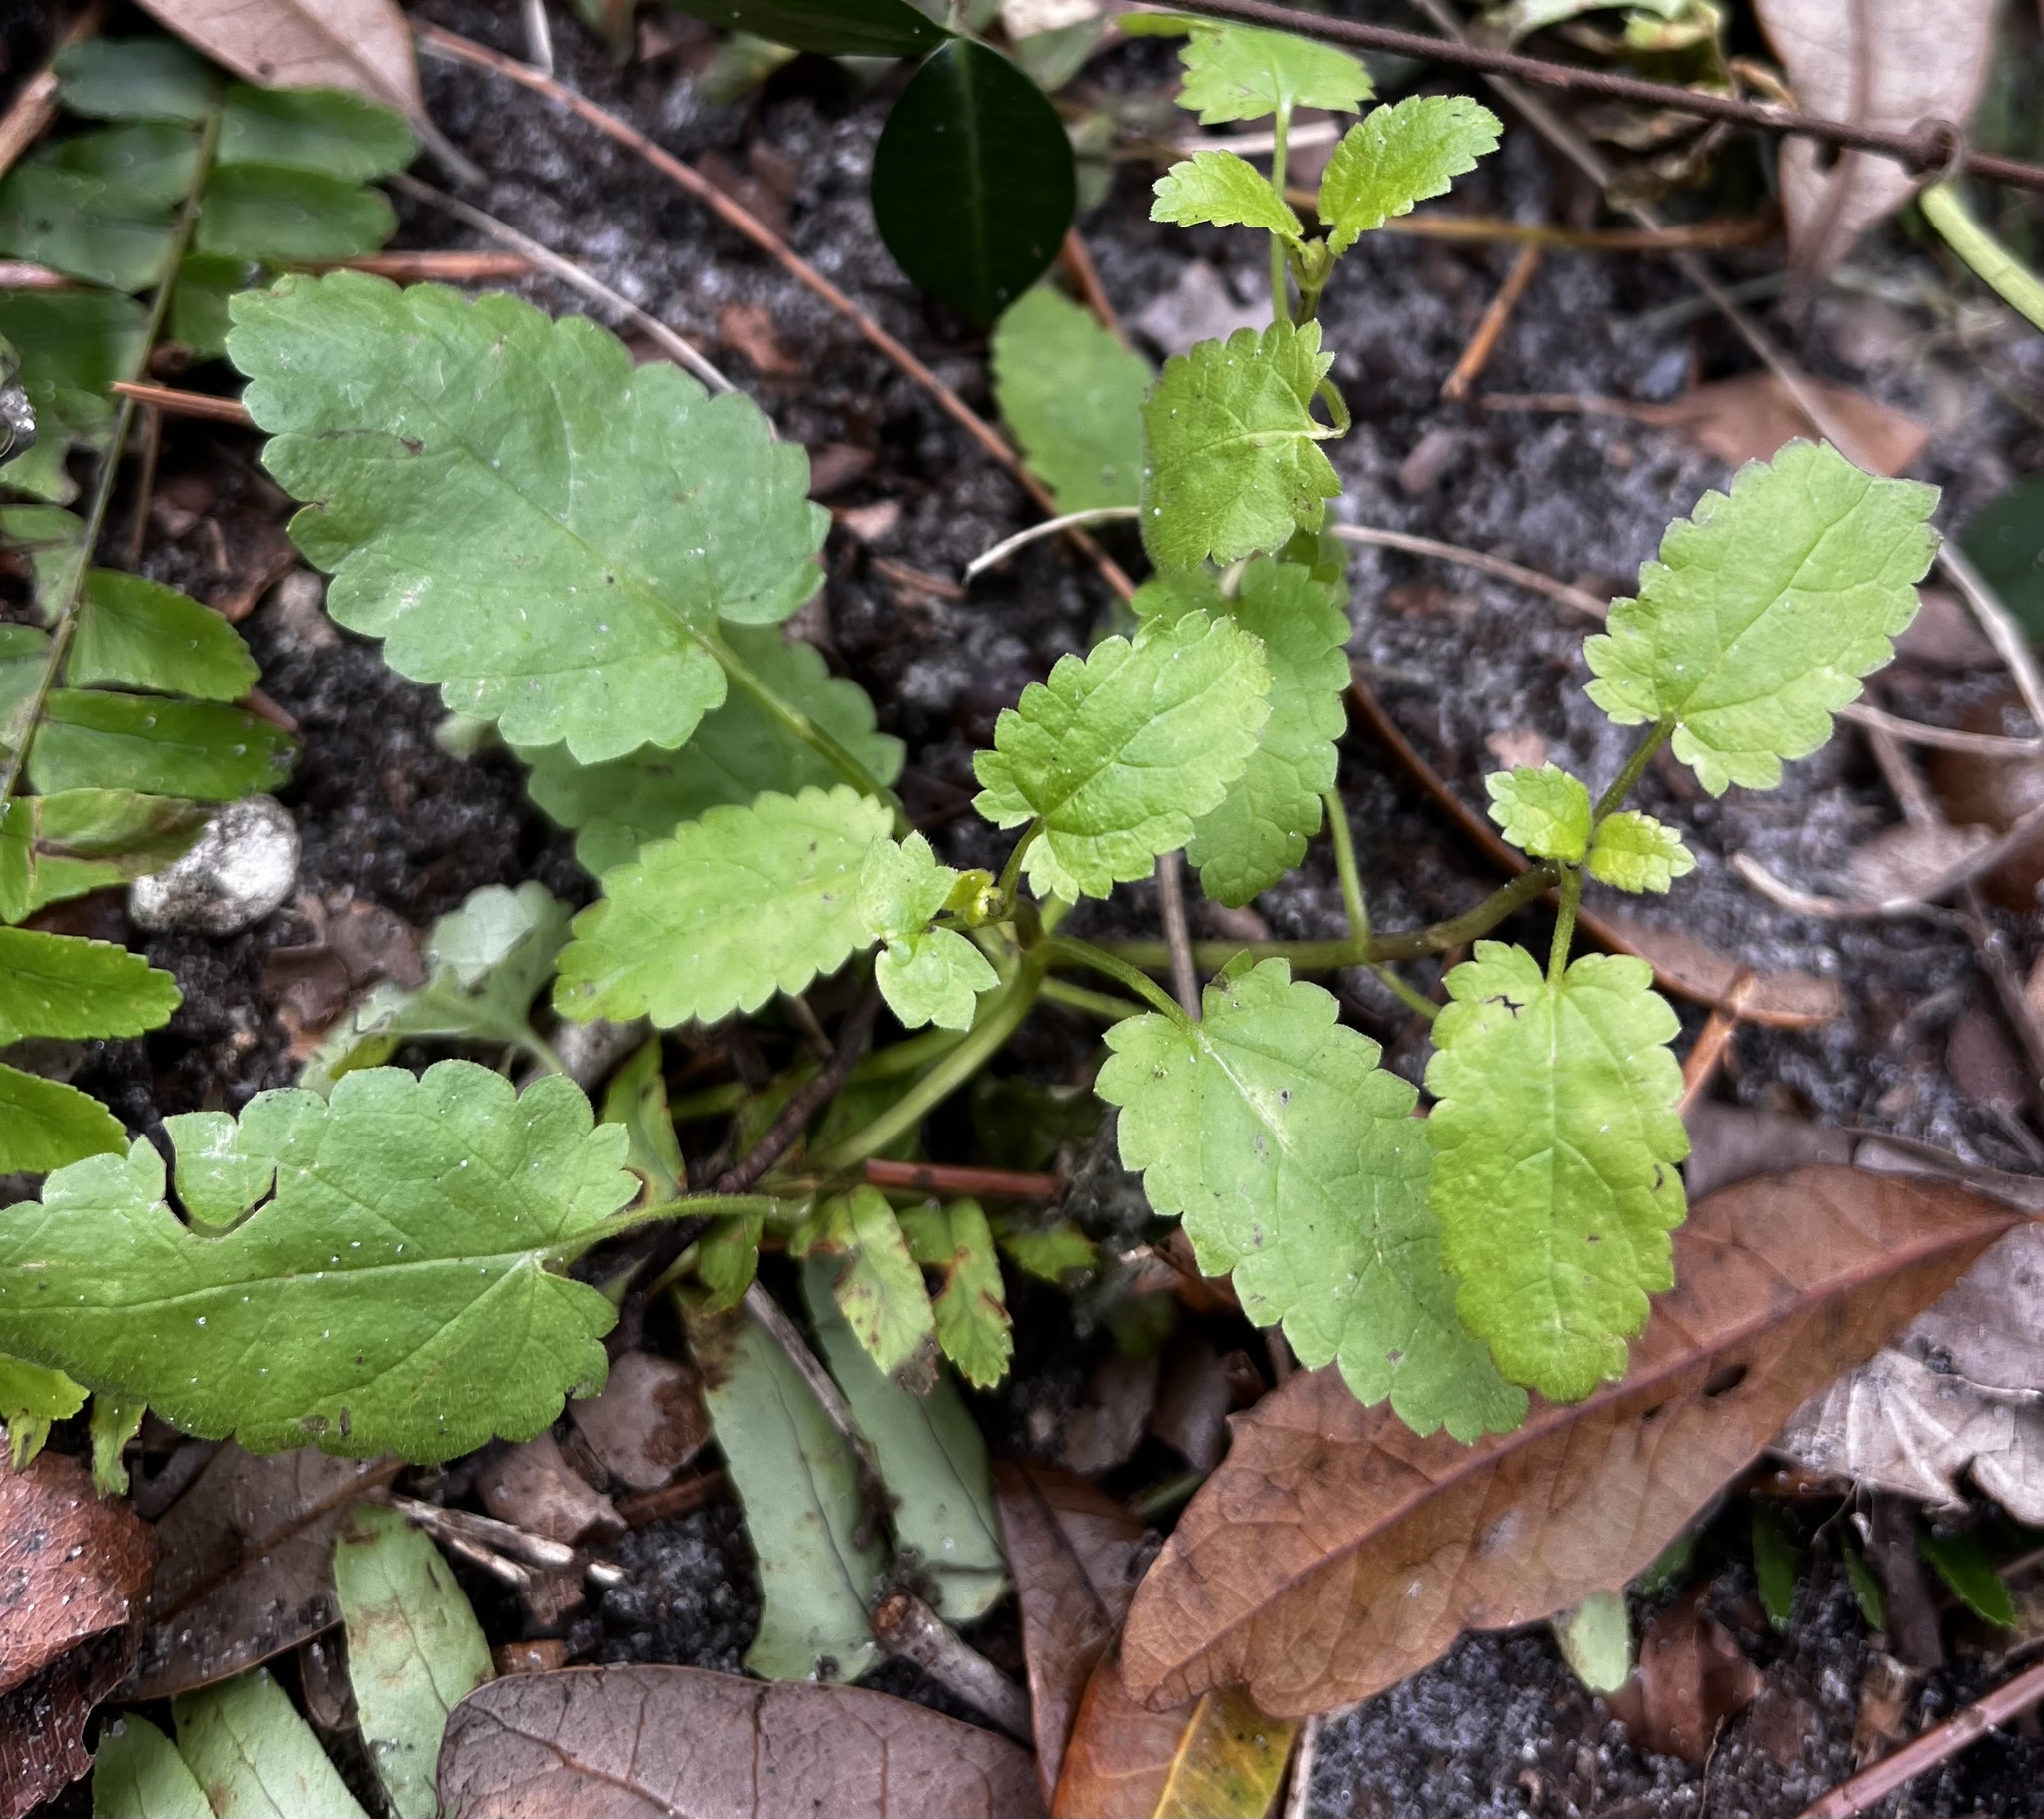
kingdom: Plantae
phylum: Tracheophyta
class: Magnoliopsida
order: Lamiales
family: Lamiaceae
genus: Stachys
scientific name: Stachys floridana
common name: Florida betony
